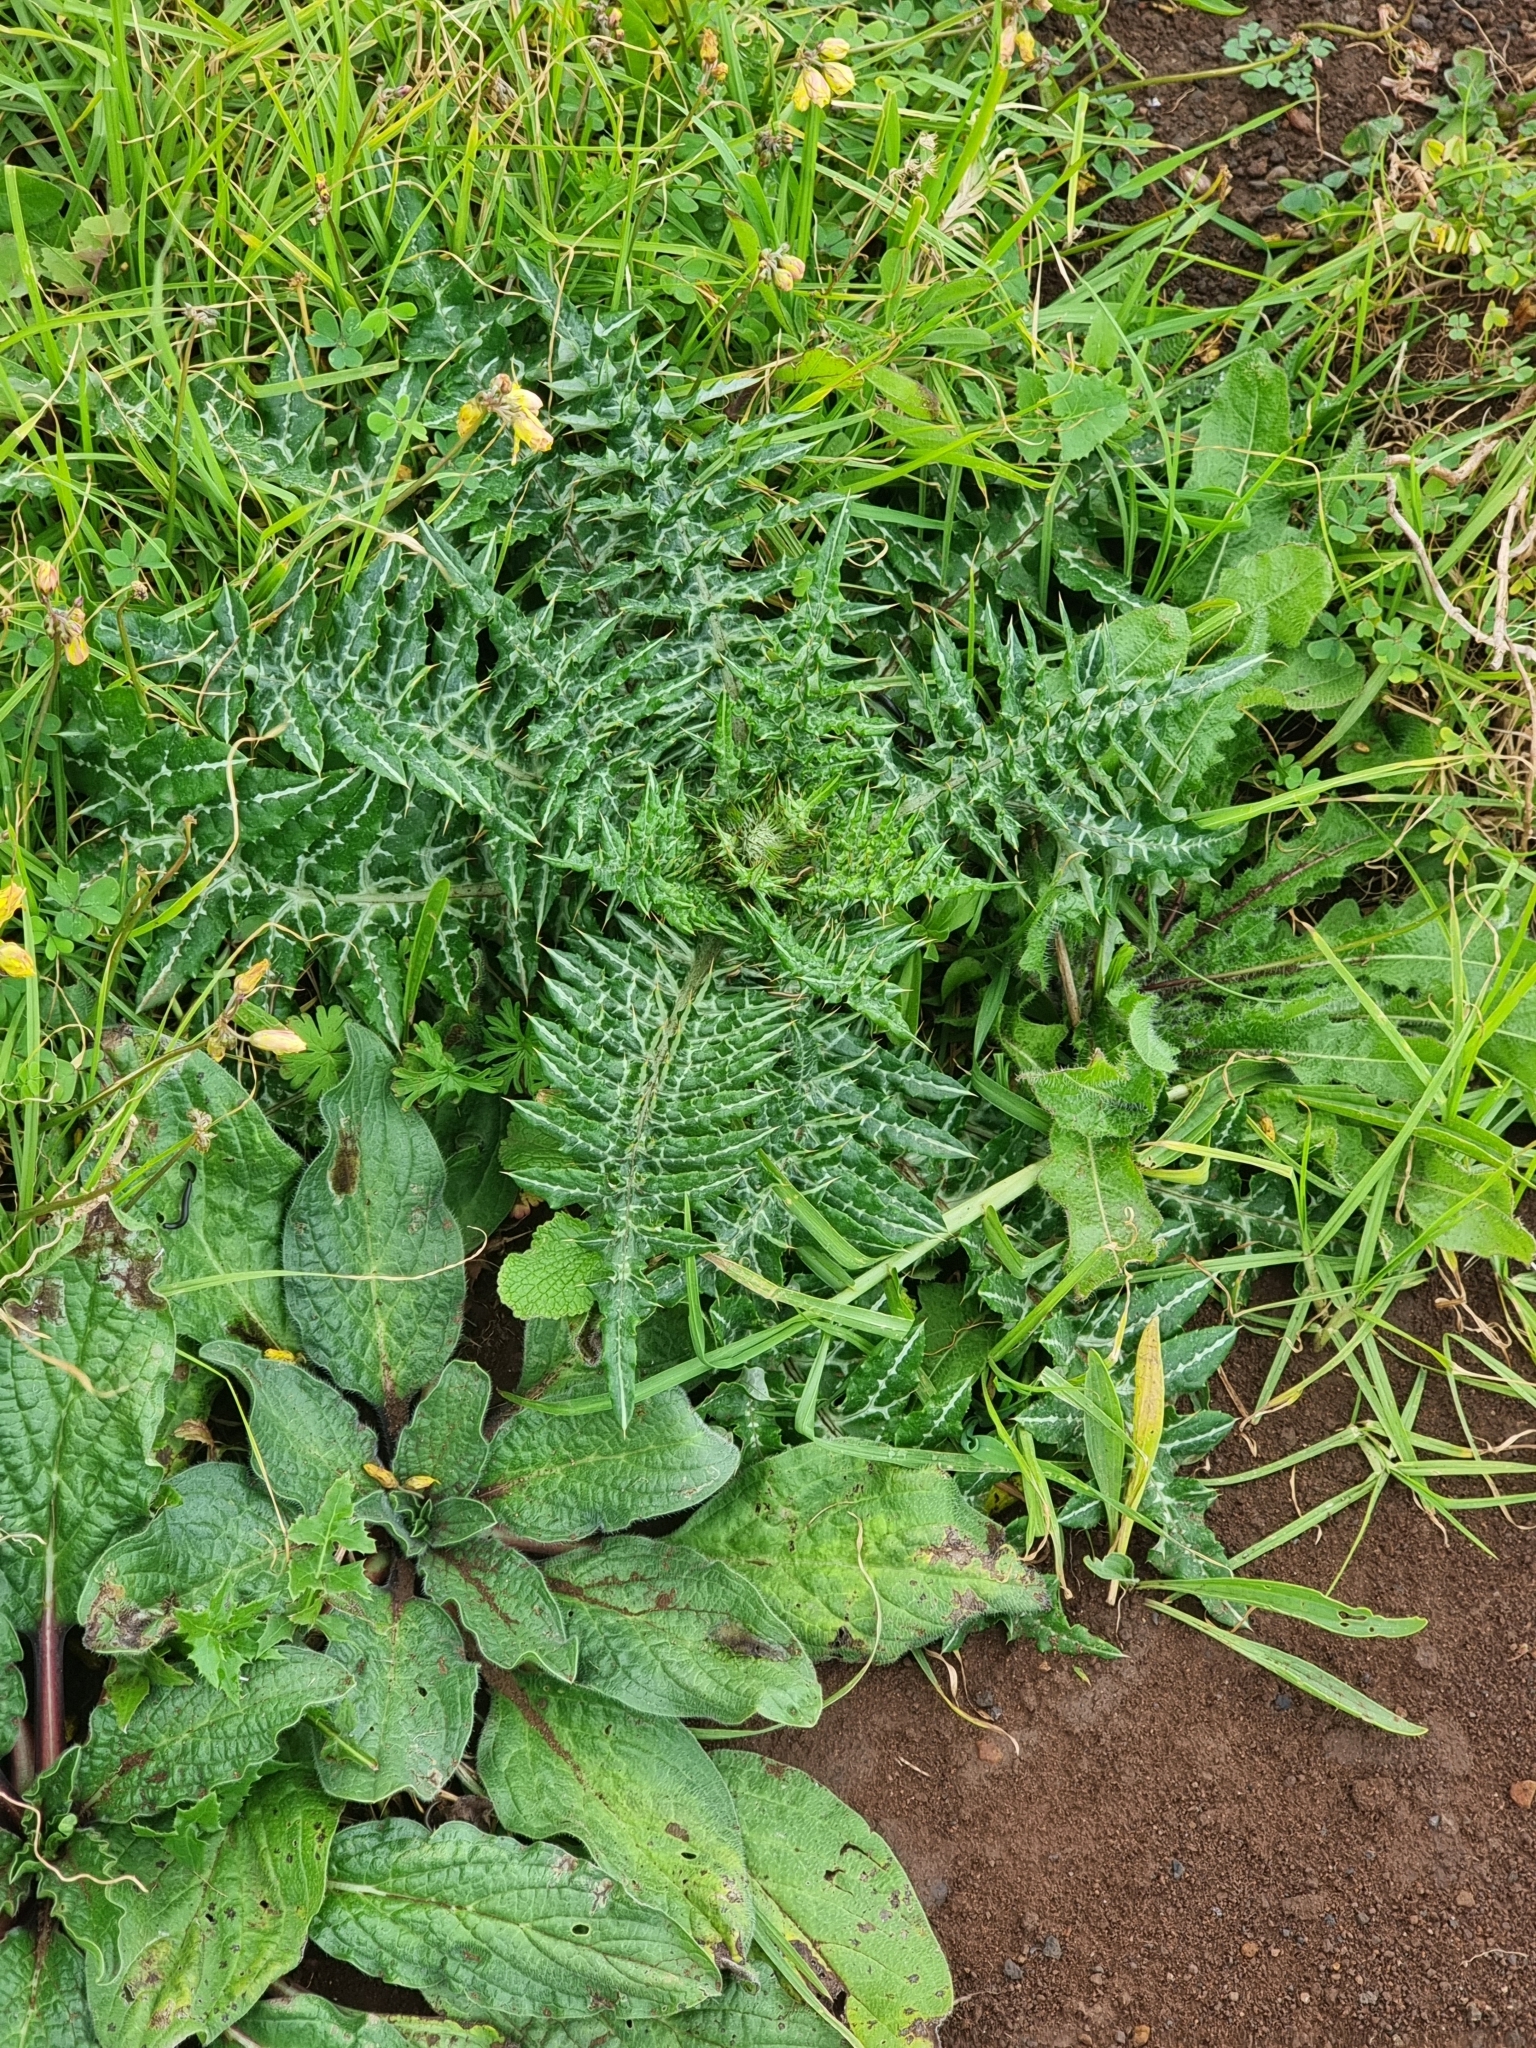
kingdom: Plantae
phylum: Tracheophyta
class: Magnoliopsida
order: Asterales
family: Asteraceae
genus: Galactites
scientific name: Galactites tomentosa
